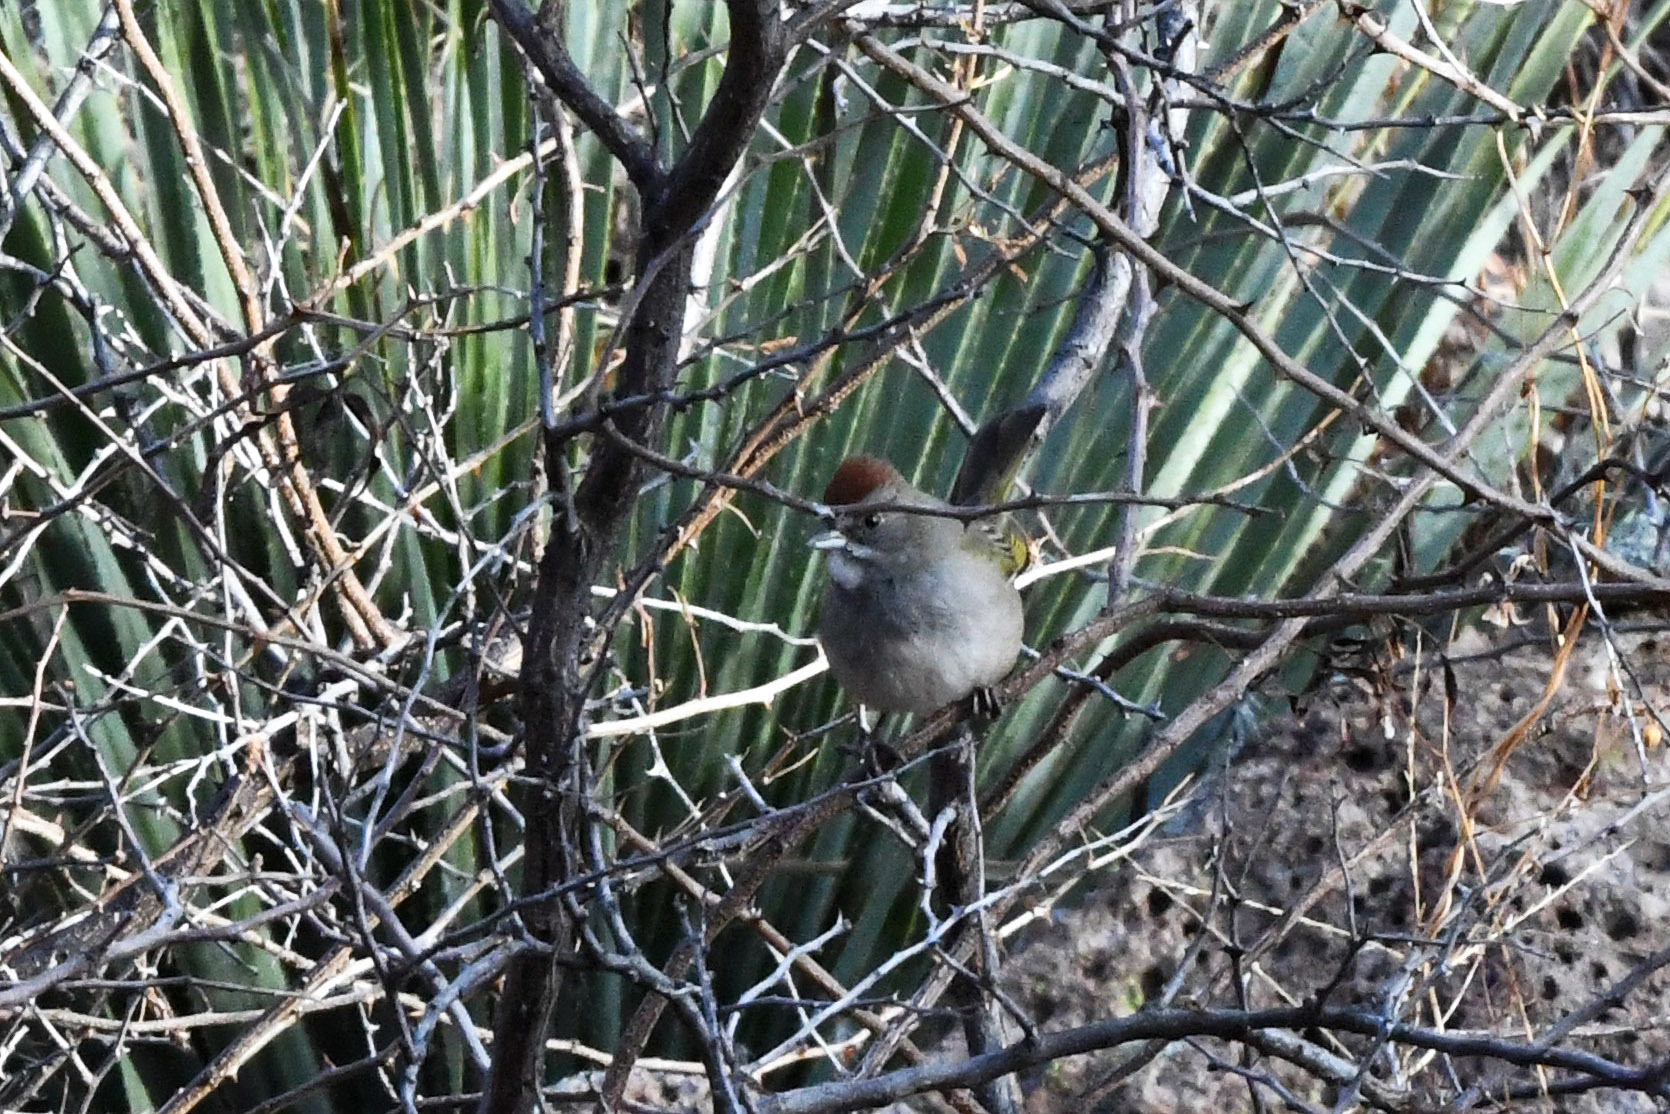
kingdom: Animalia
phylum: Chordata
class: Aves
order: Passeriformes
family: Passerellidae
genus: Pipilo
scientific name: Pipilo chlorurus
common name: Green-tailed towhee
